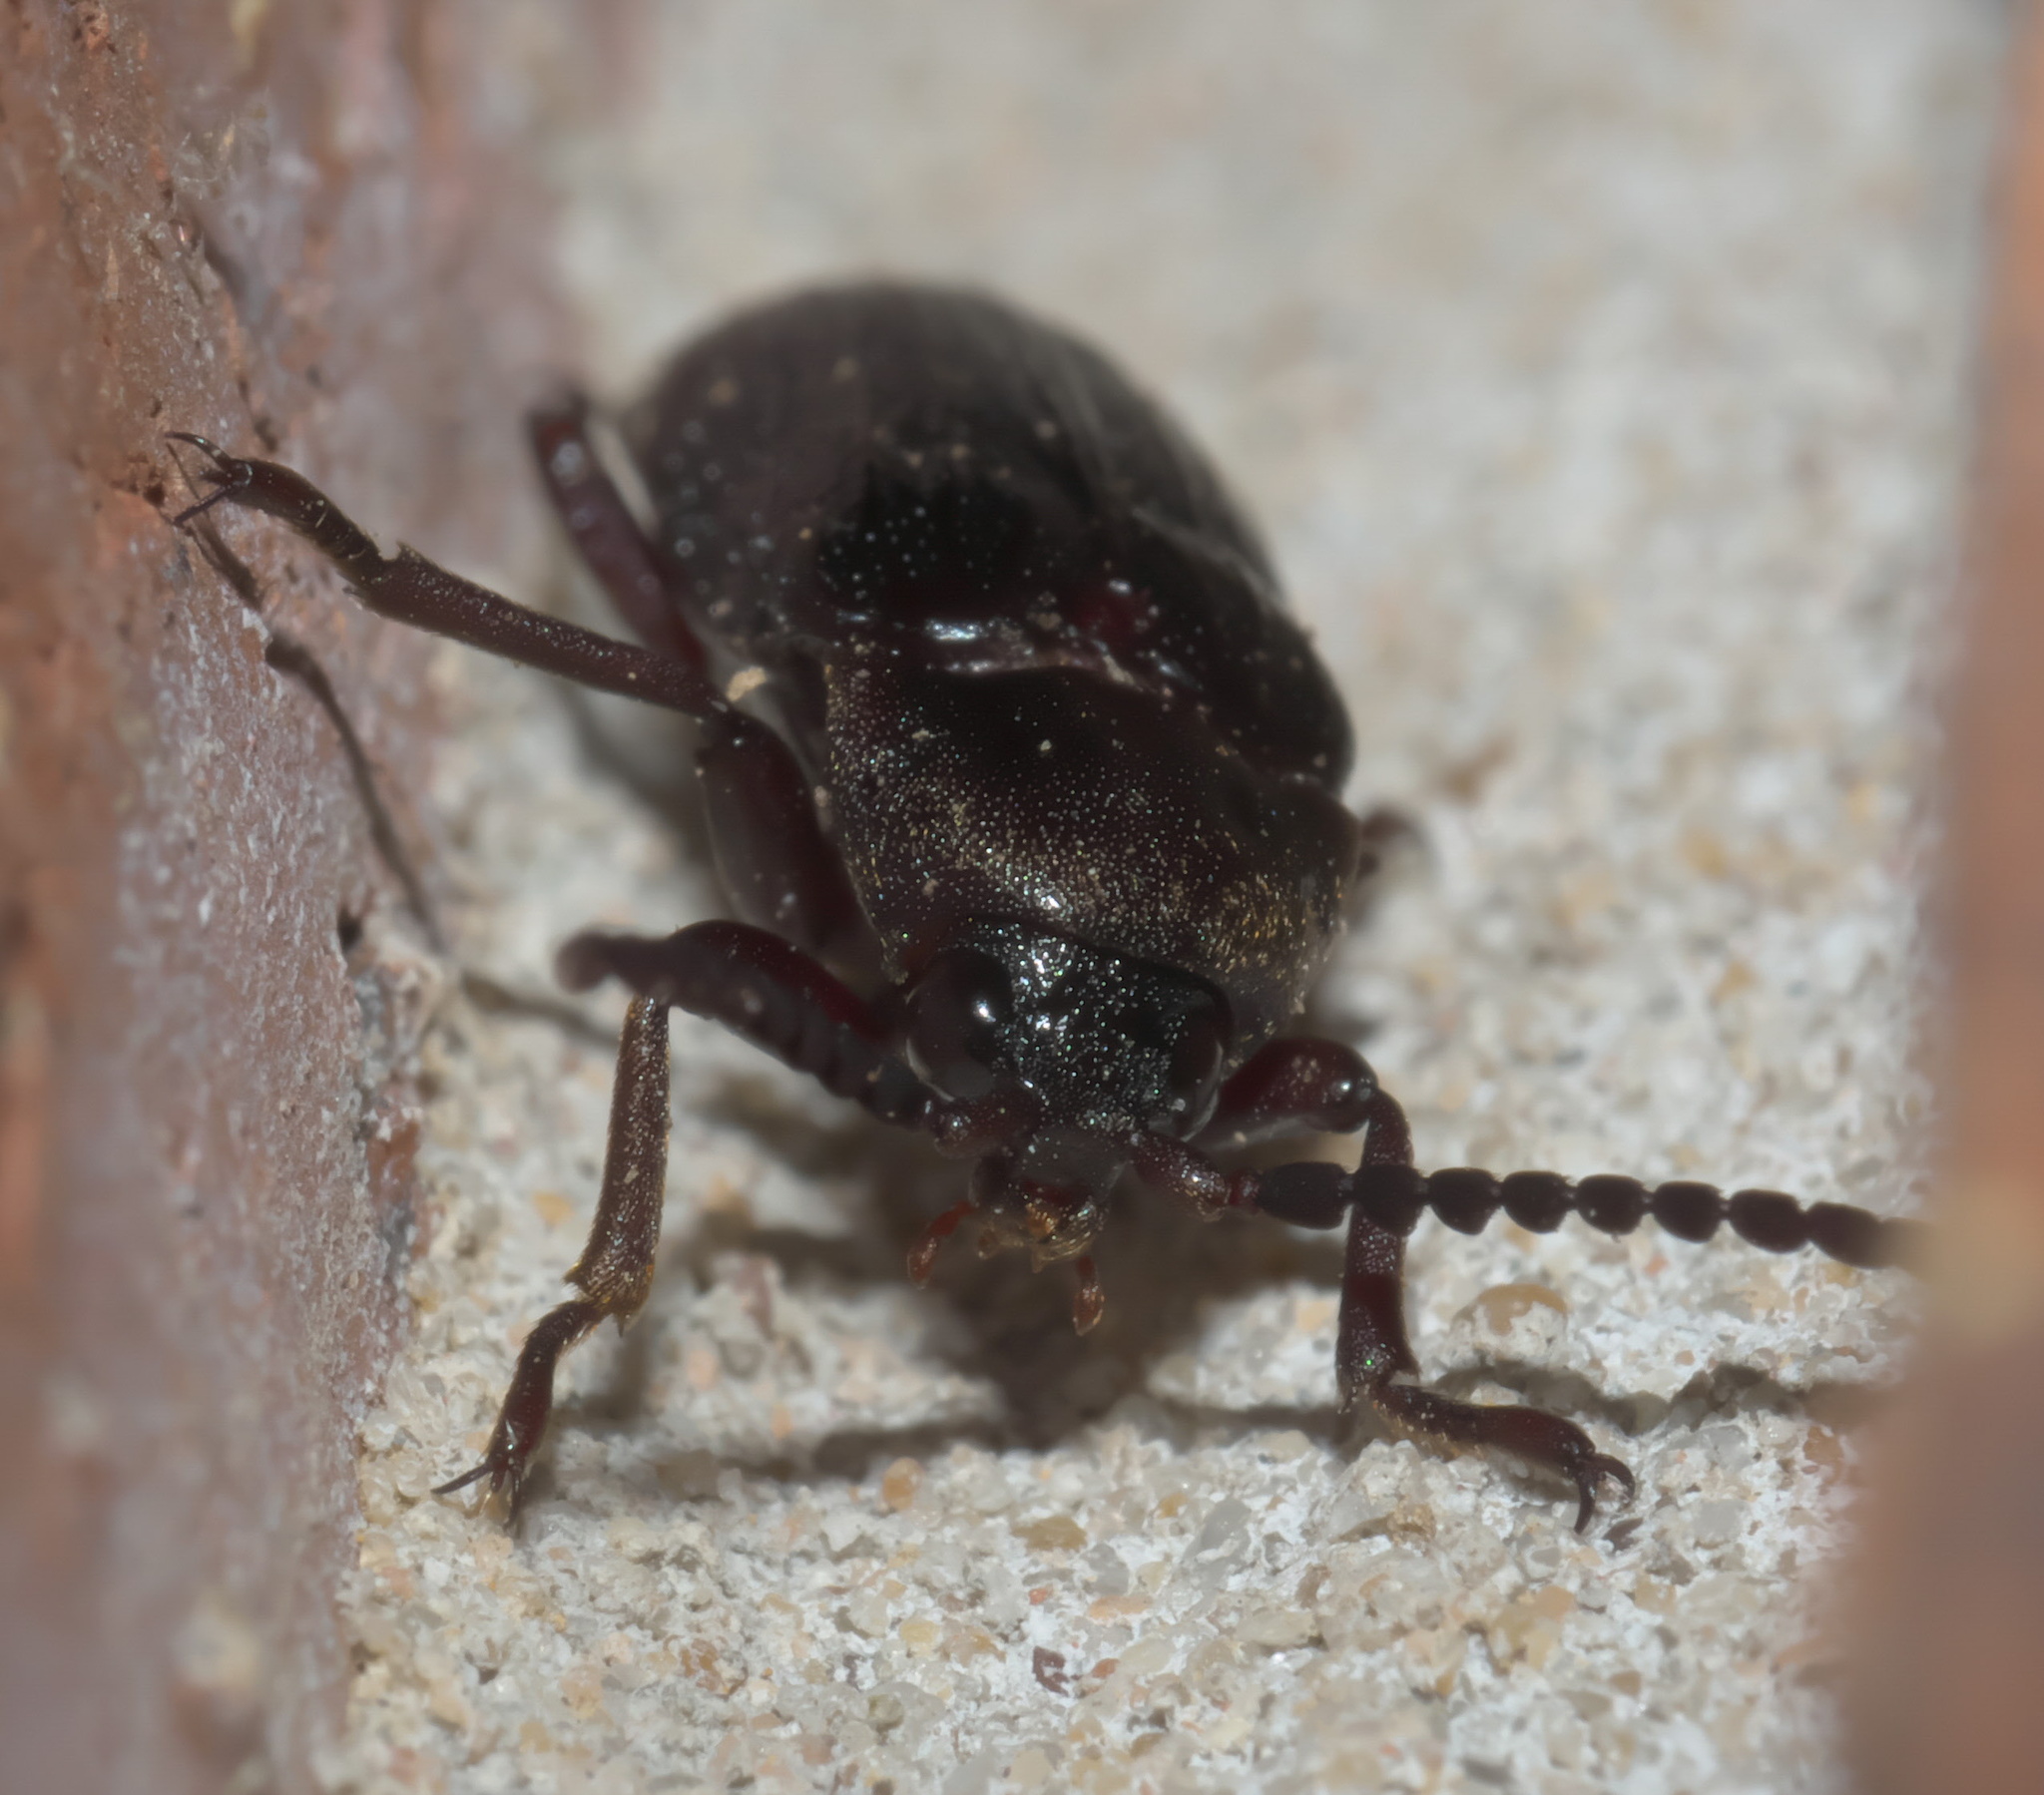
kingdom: Animalia
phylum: Arthropoda
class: Insecta
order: Coleoptera
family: Callirhipidae
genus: Zenoa
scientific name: Zenoa picea
